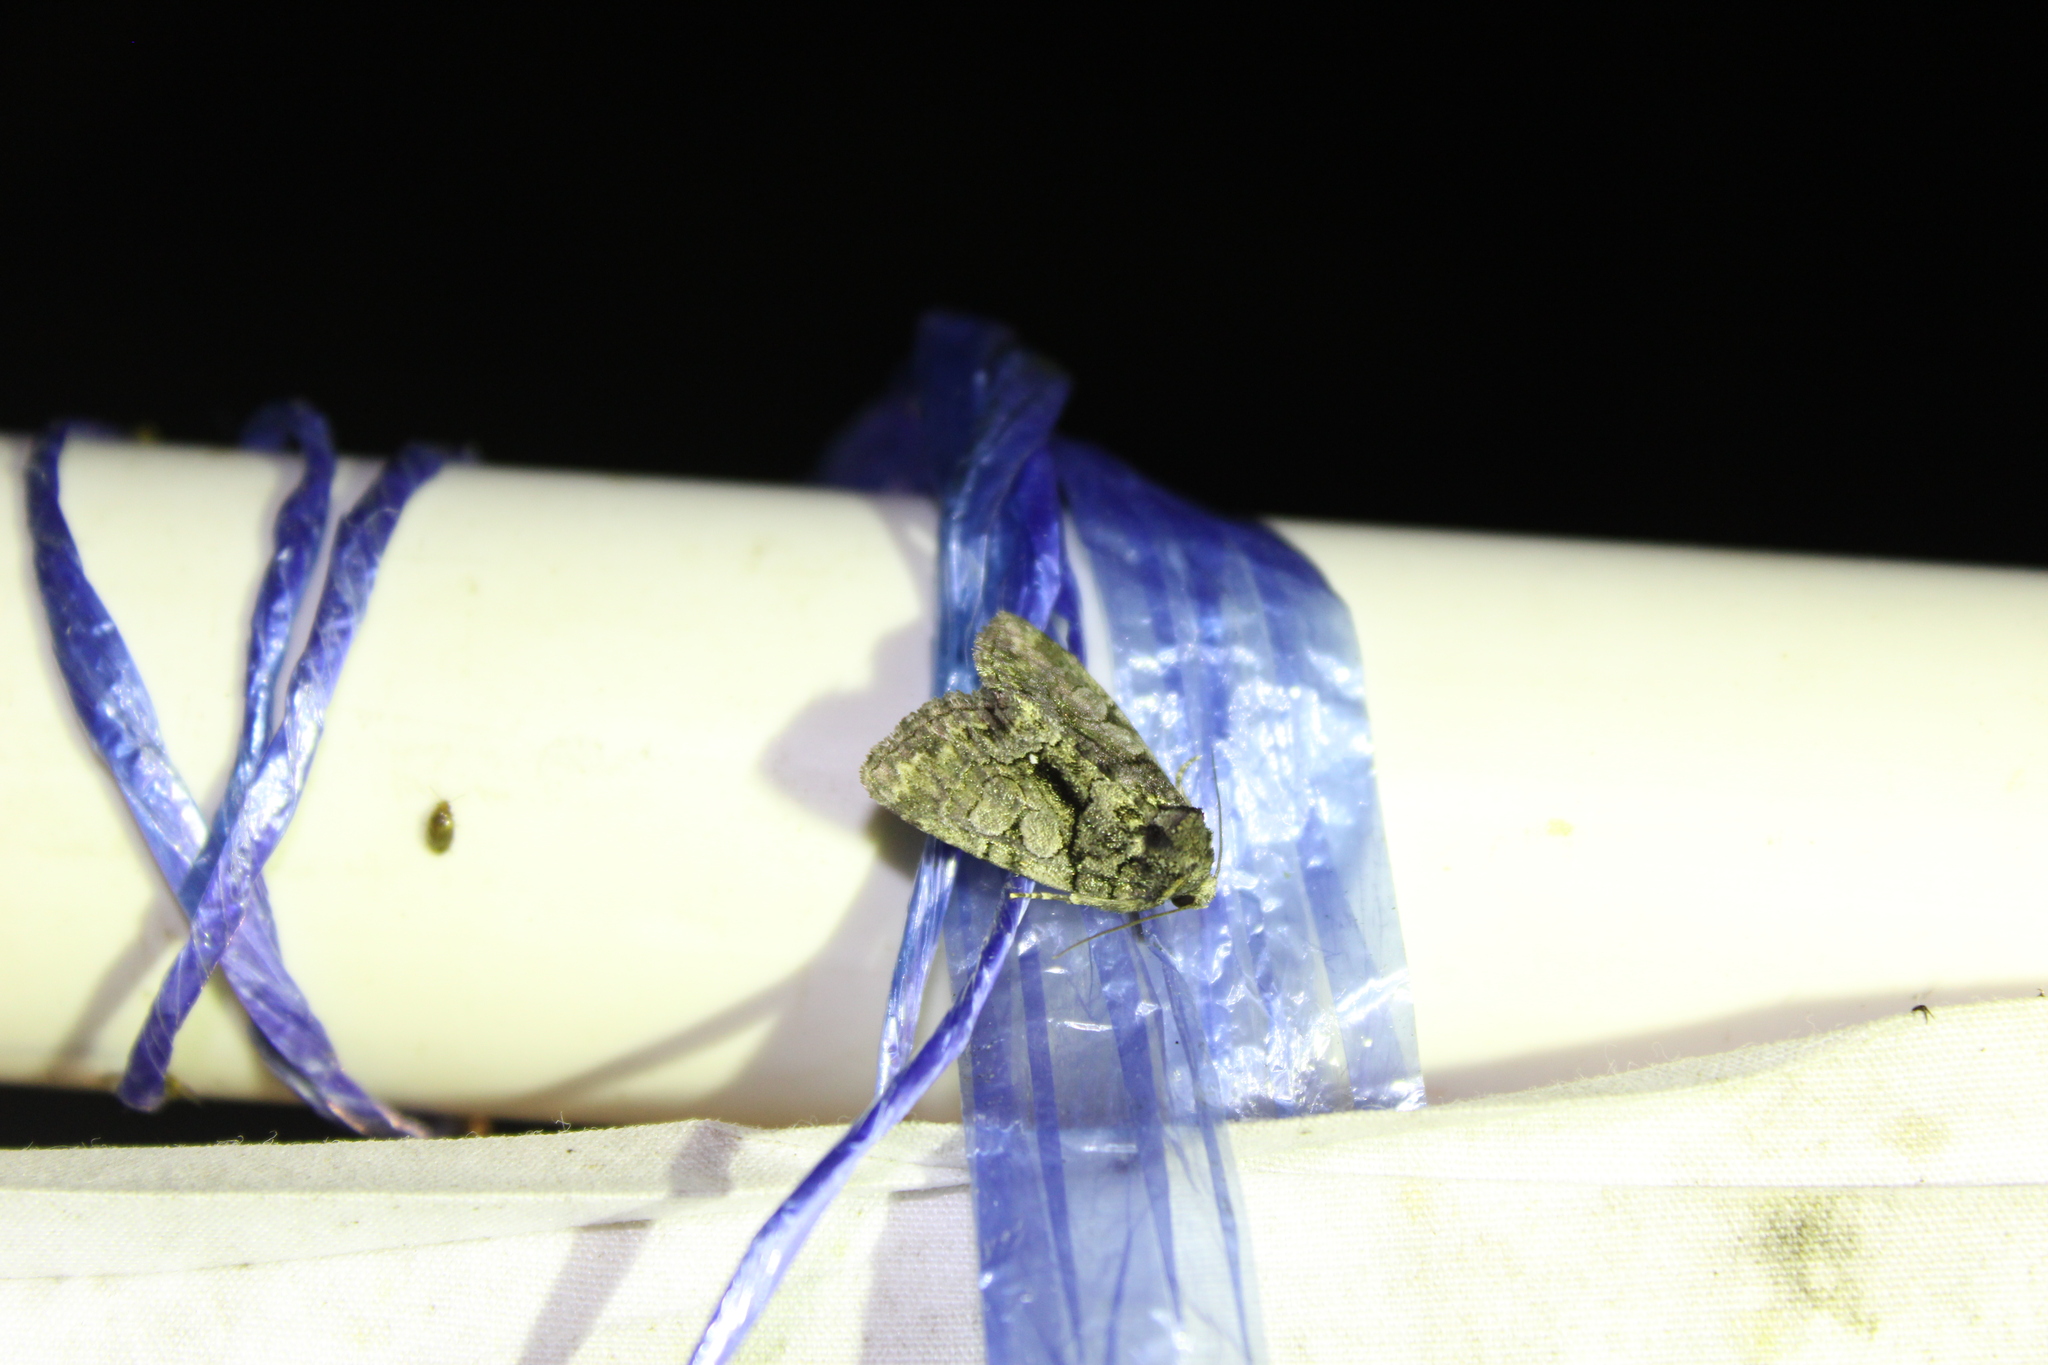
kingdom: Animalia
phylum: Arthropoda
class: Insecta
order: Lepidoptera
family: Noctuidae
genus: Chytonix
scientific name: Chytonix palliatricula
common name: Cloaked marvel
